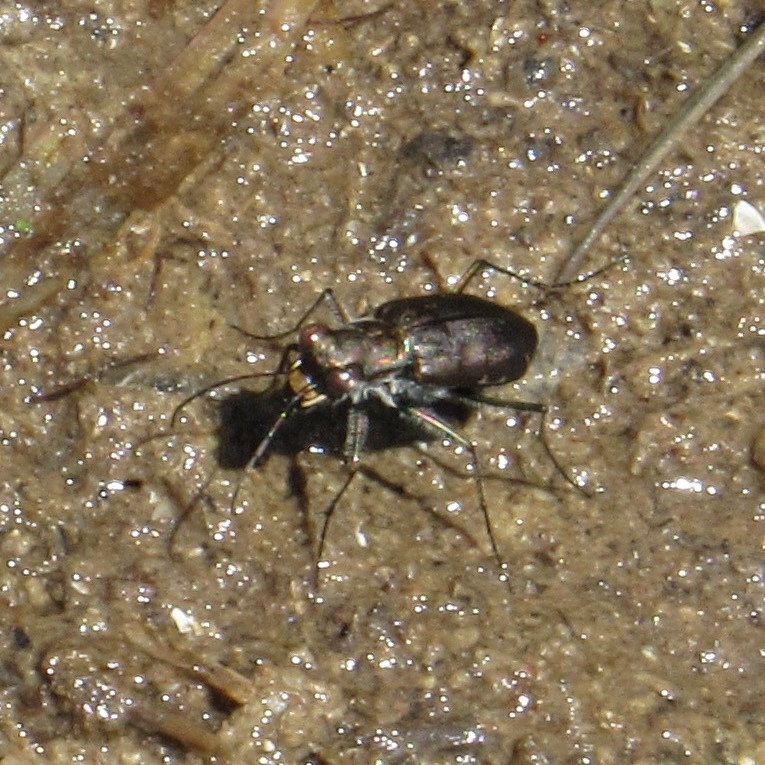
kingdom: Animalia
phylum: Arthropoda
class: Insecta
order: Coleoptera
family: Carabidae
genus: Cicindela
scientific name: Cicindela punctulata
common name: Punctured tiger beetle
